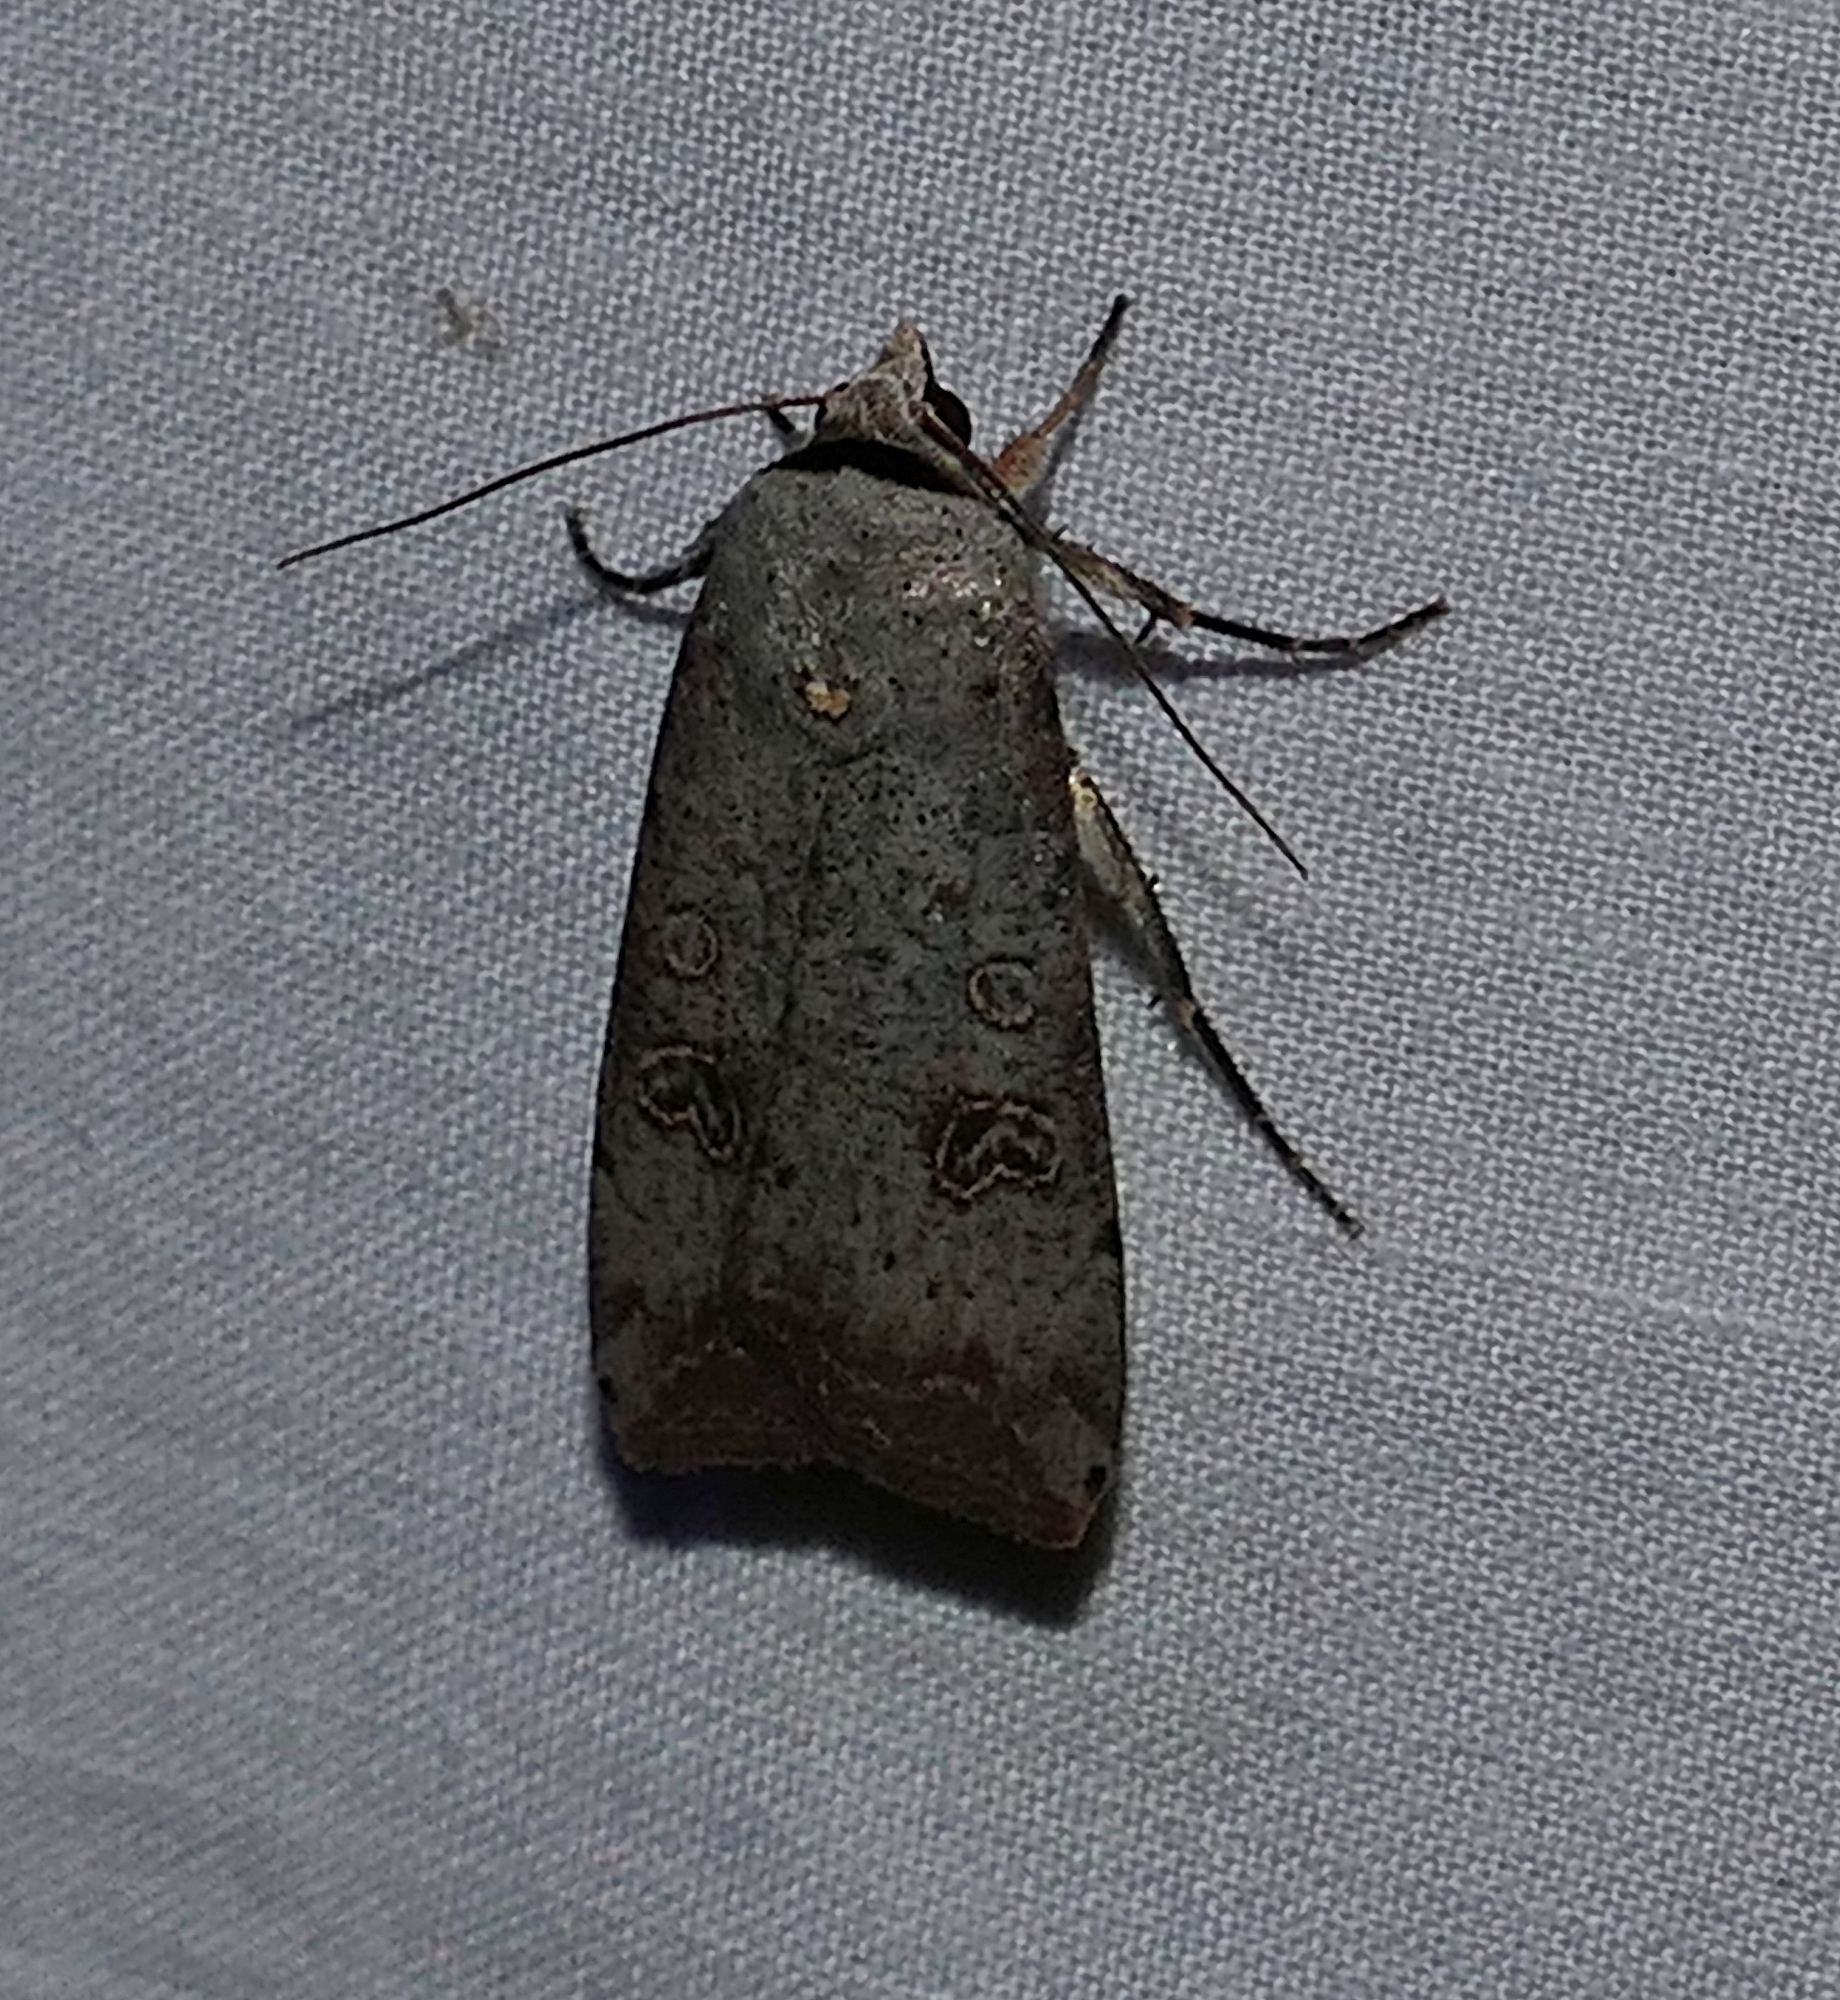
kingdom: Animalia
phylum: Arthropoda
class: Insecta
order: Lepidoptera
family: Noctuidae
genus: Anicla
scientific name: Anicla infecta
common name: Green cutworm
